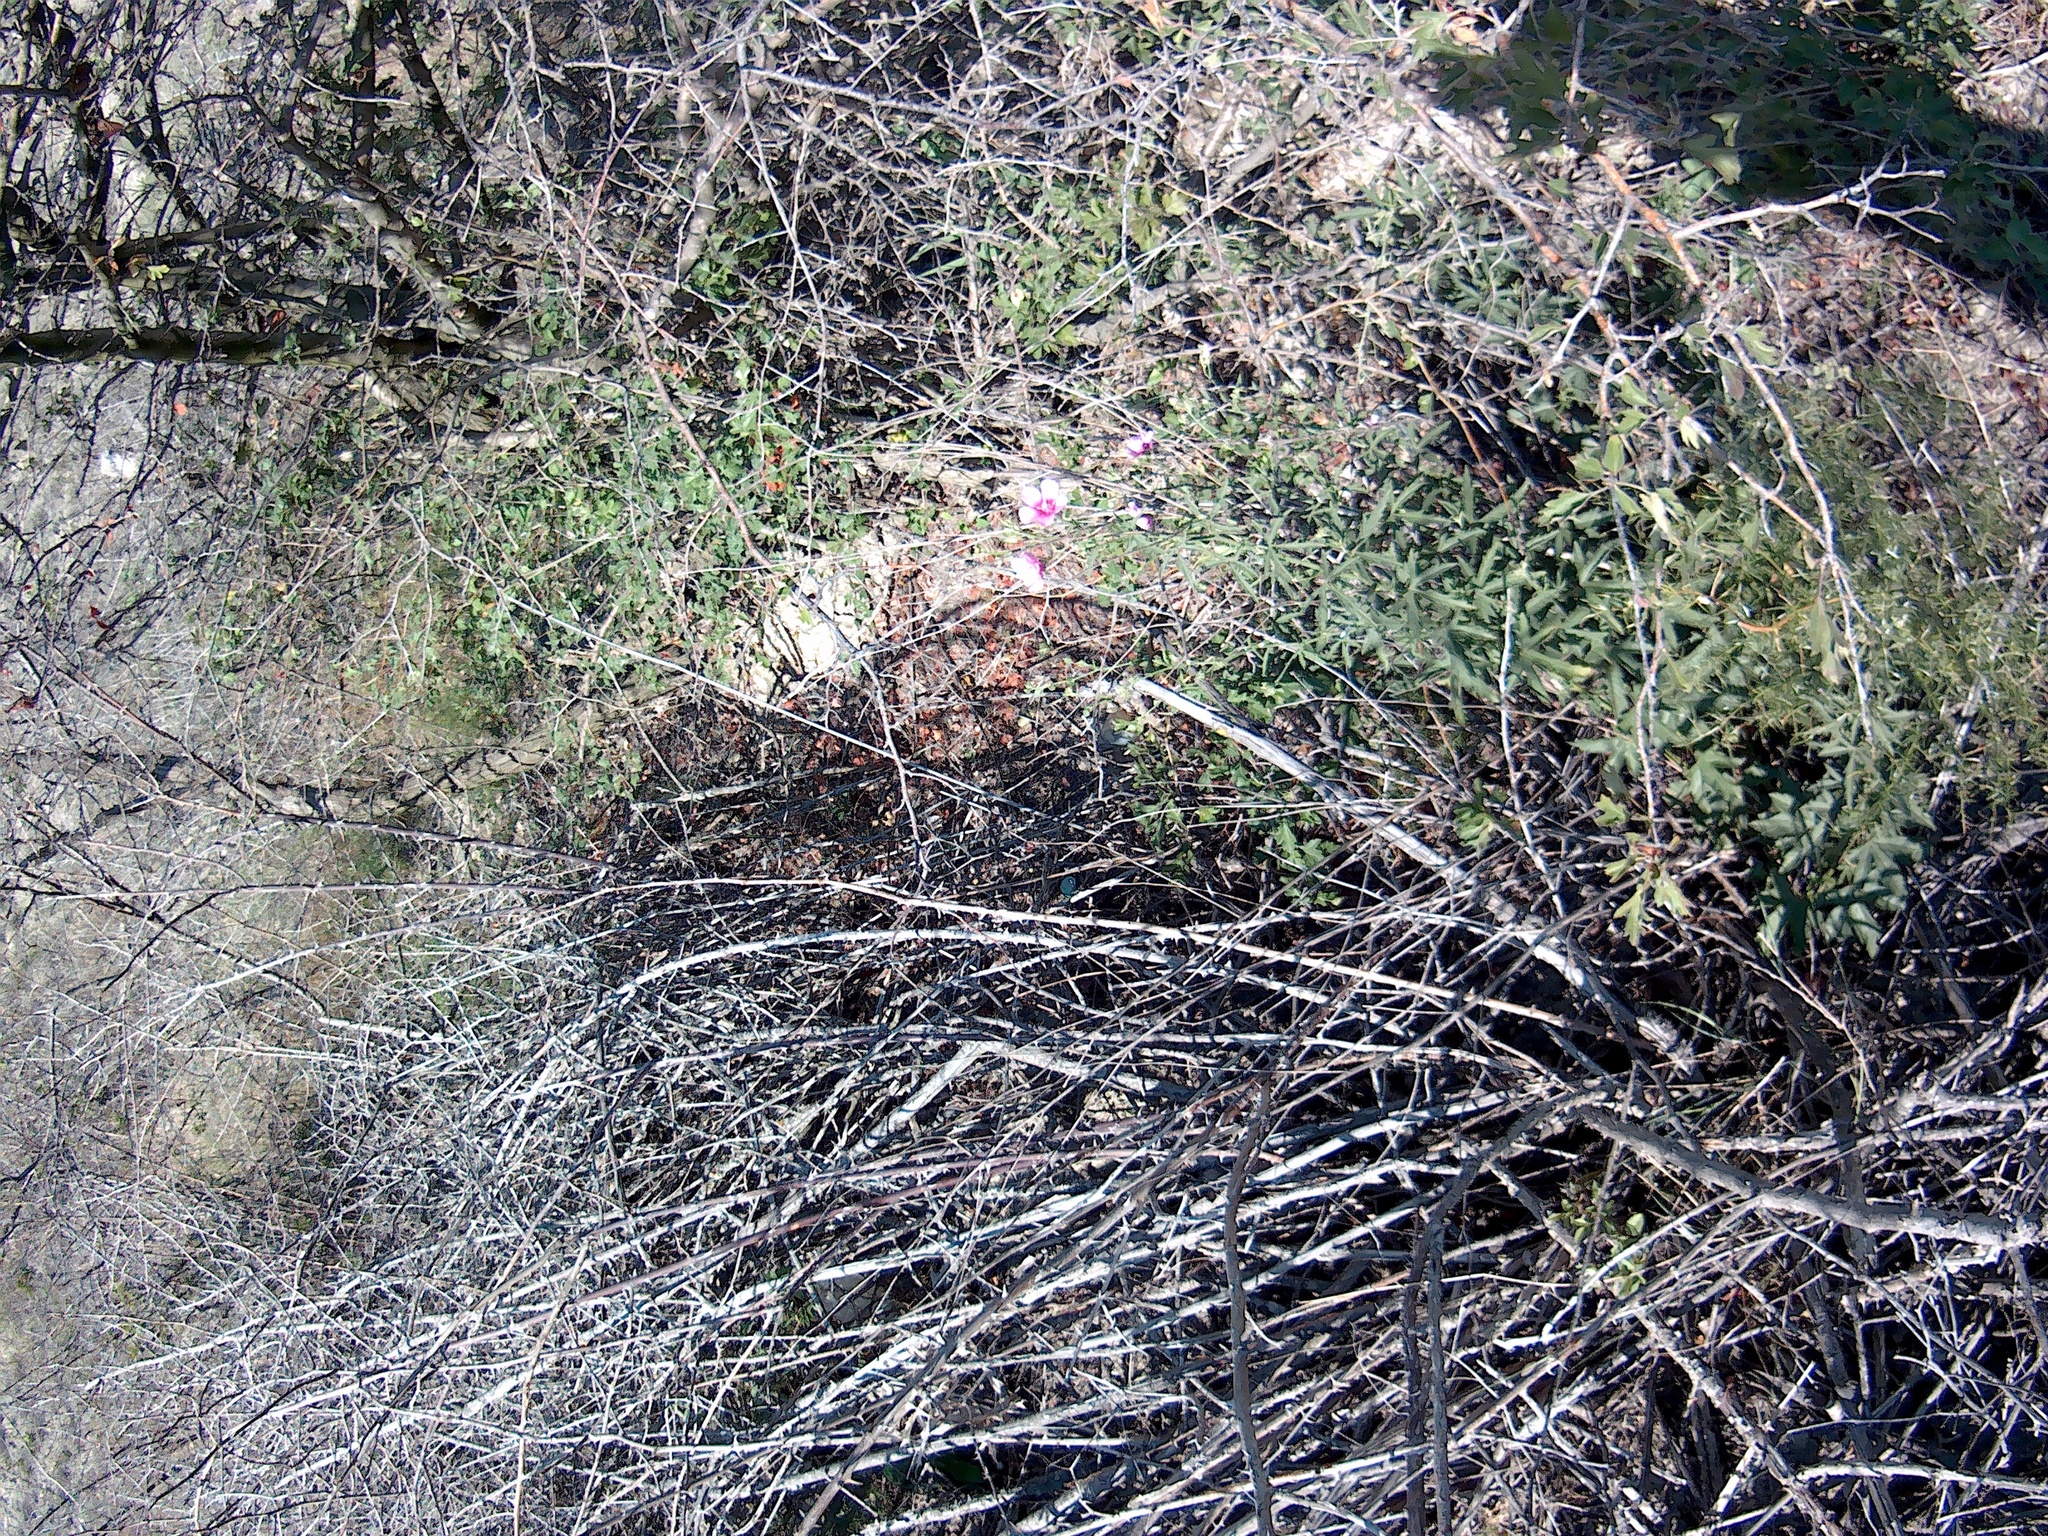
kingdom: Plantae
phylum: Tracheophyta
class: Magnoliopsida
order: Malvales
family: Malvaceae
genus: Althaea
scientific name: Althaea cannabina
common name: Palm-leaf marshmallow
